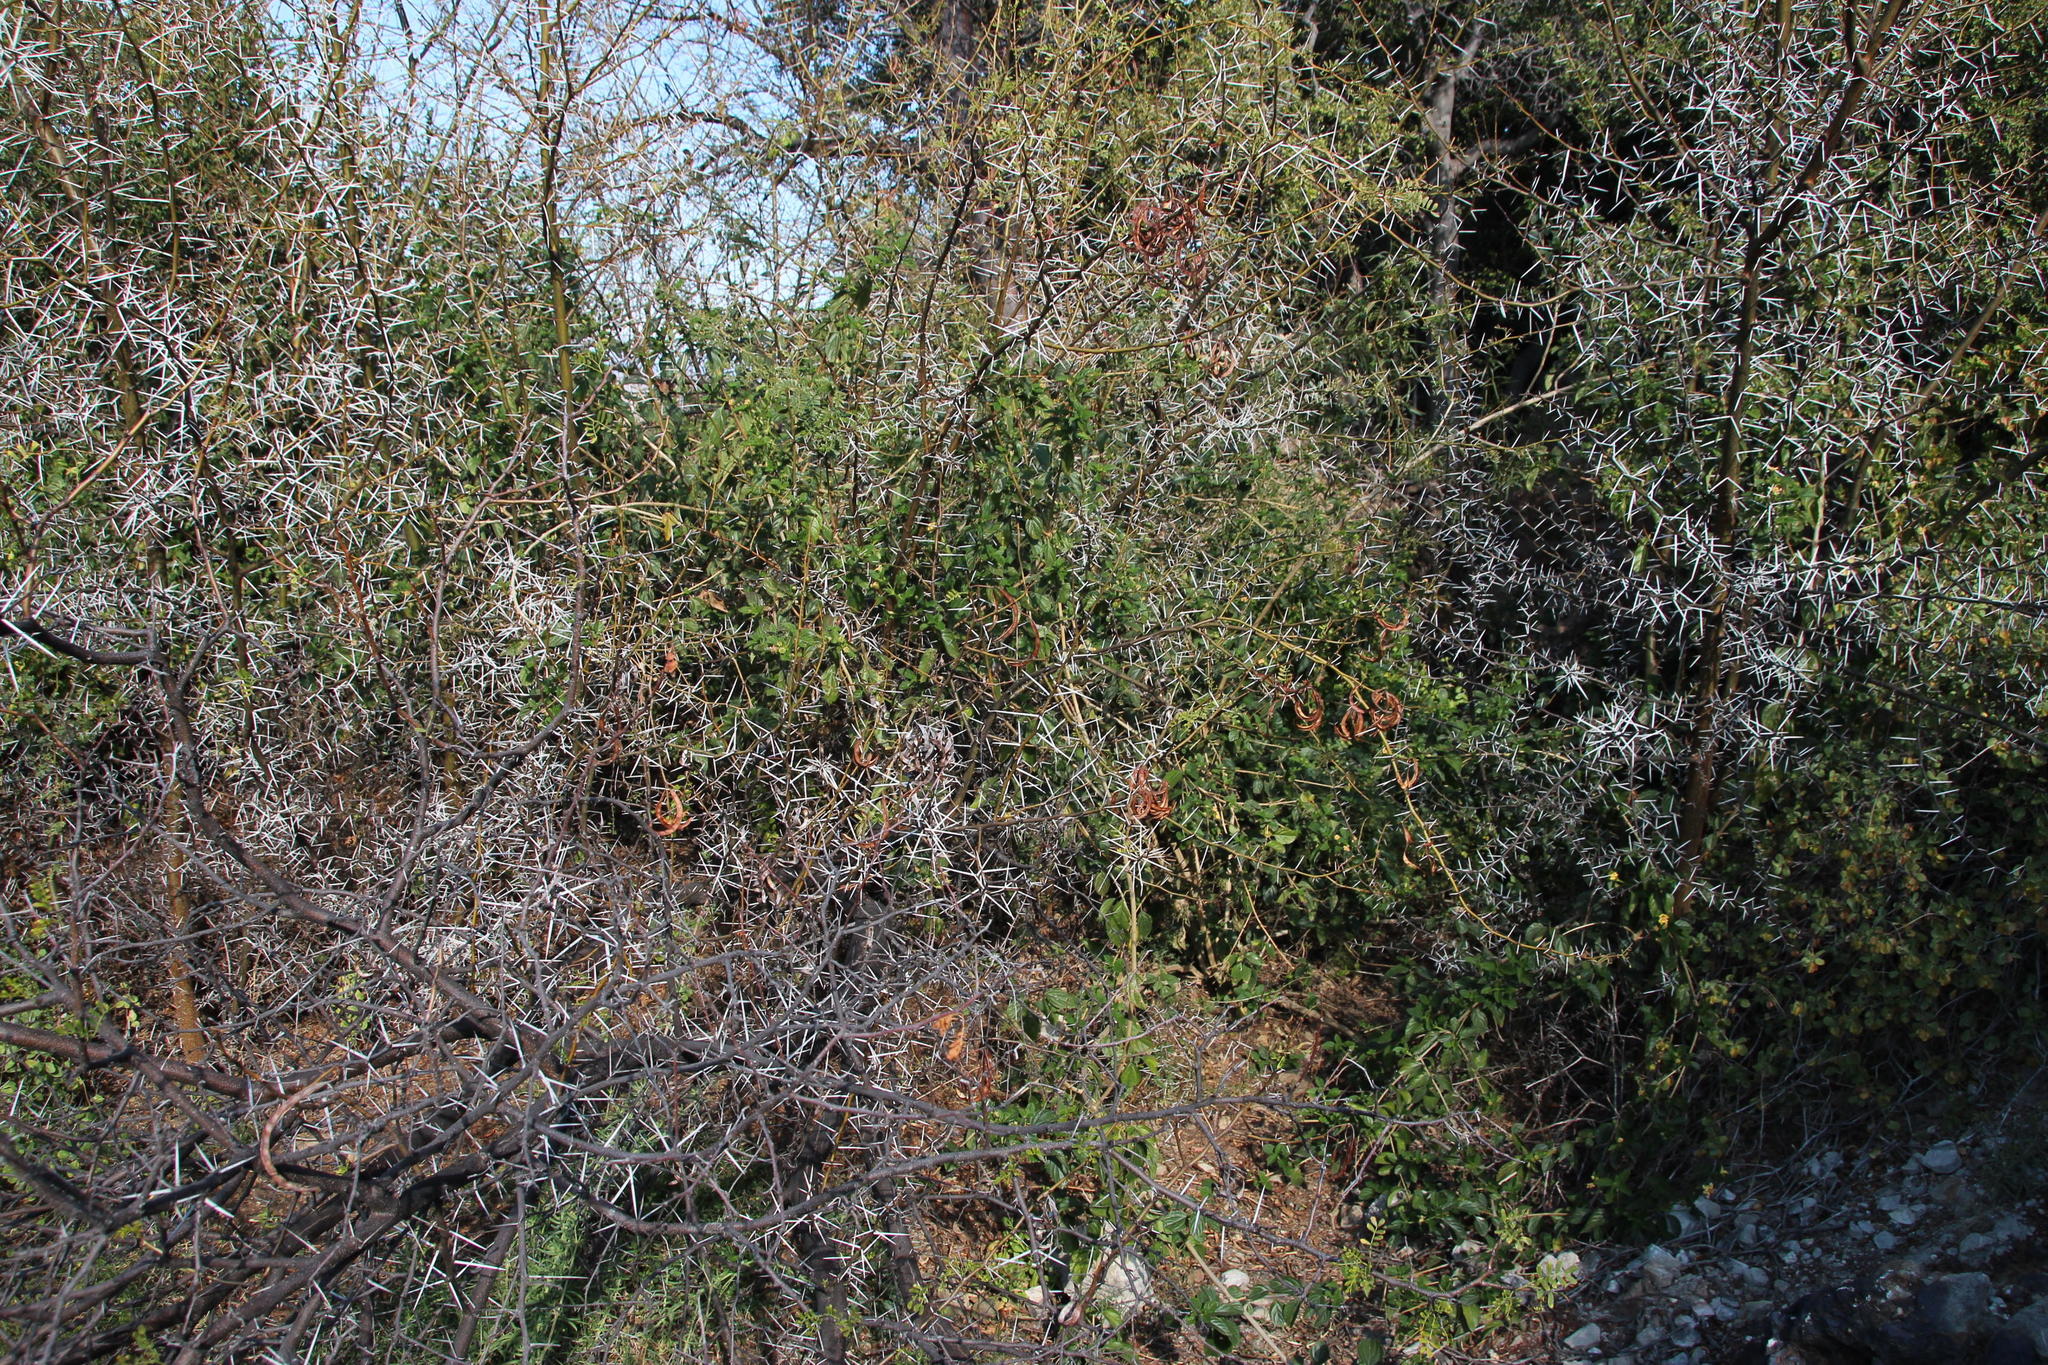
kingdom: Plantae
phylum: Tracheophyta
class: Magnoliopsida
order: Fabales
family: Fabaceae
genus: Vachellia
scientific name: Vachellia karroo
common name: Sweet thorn
